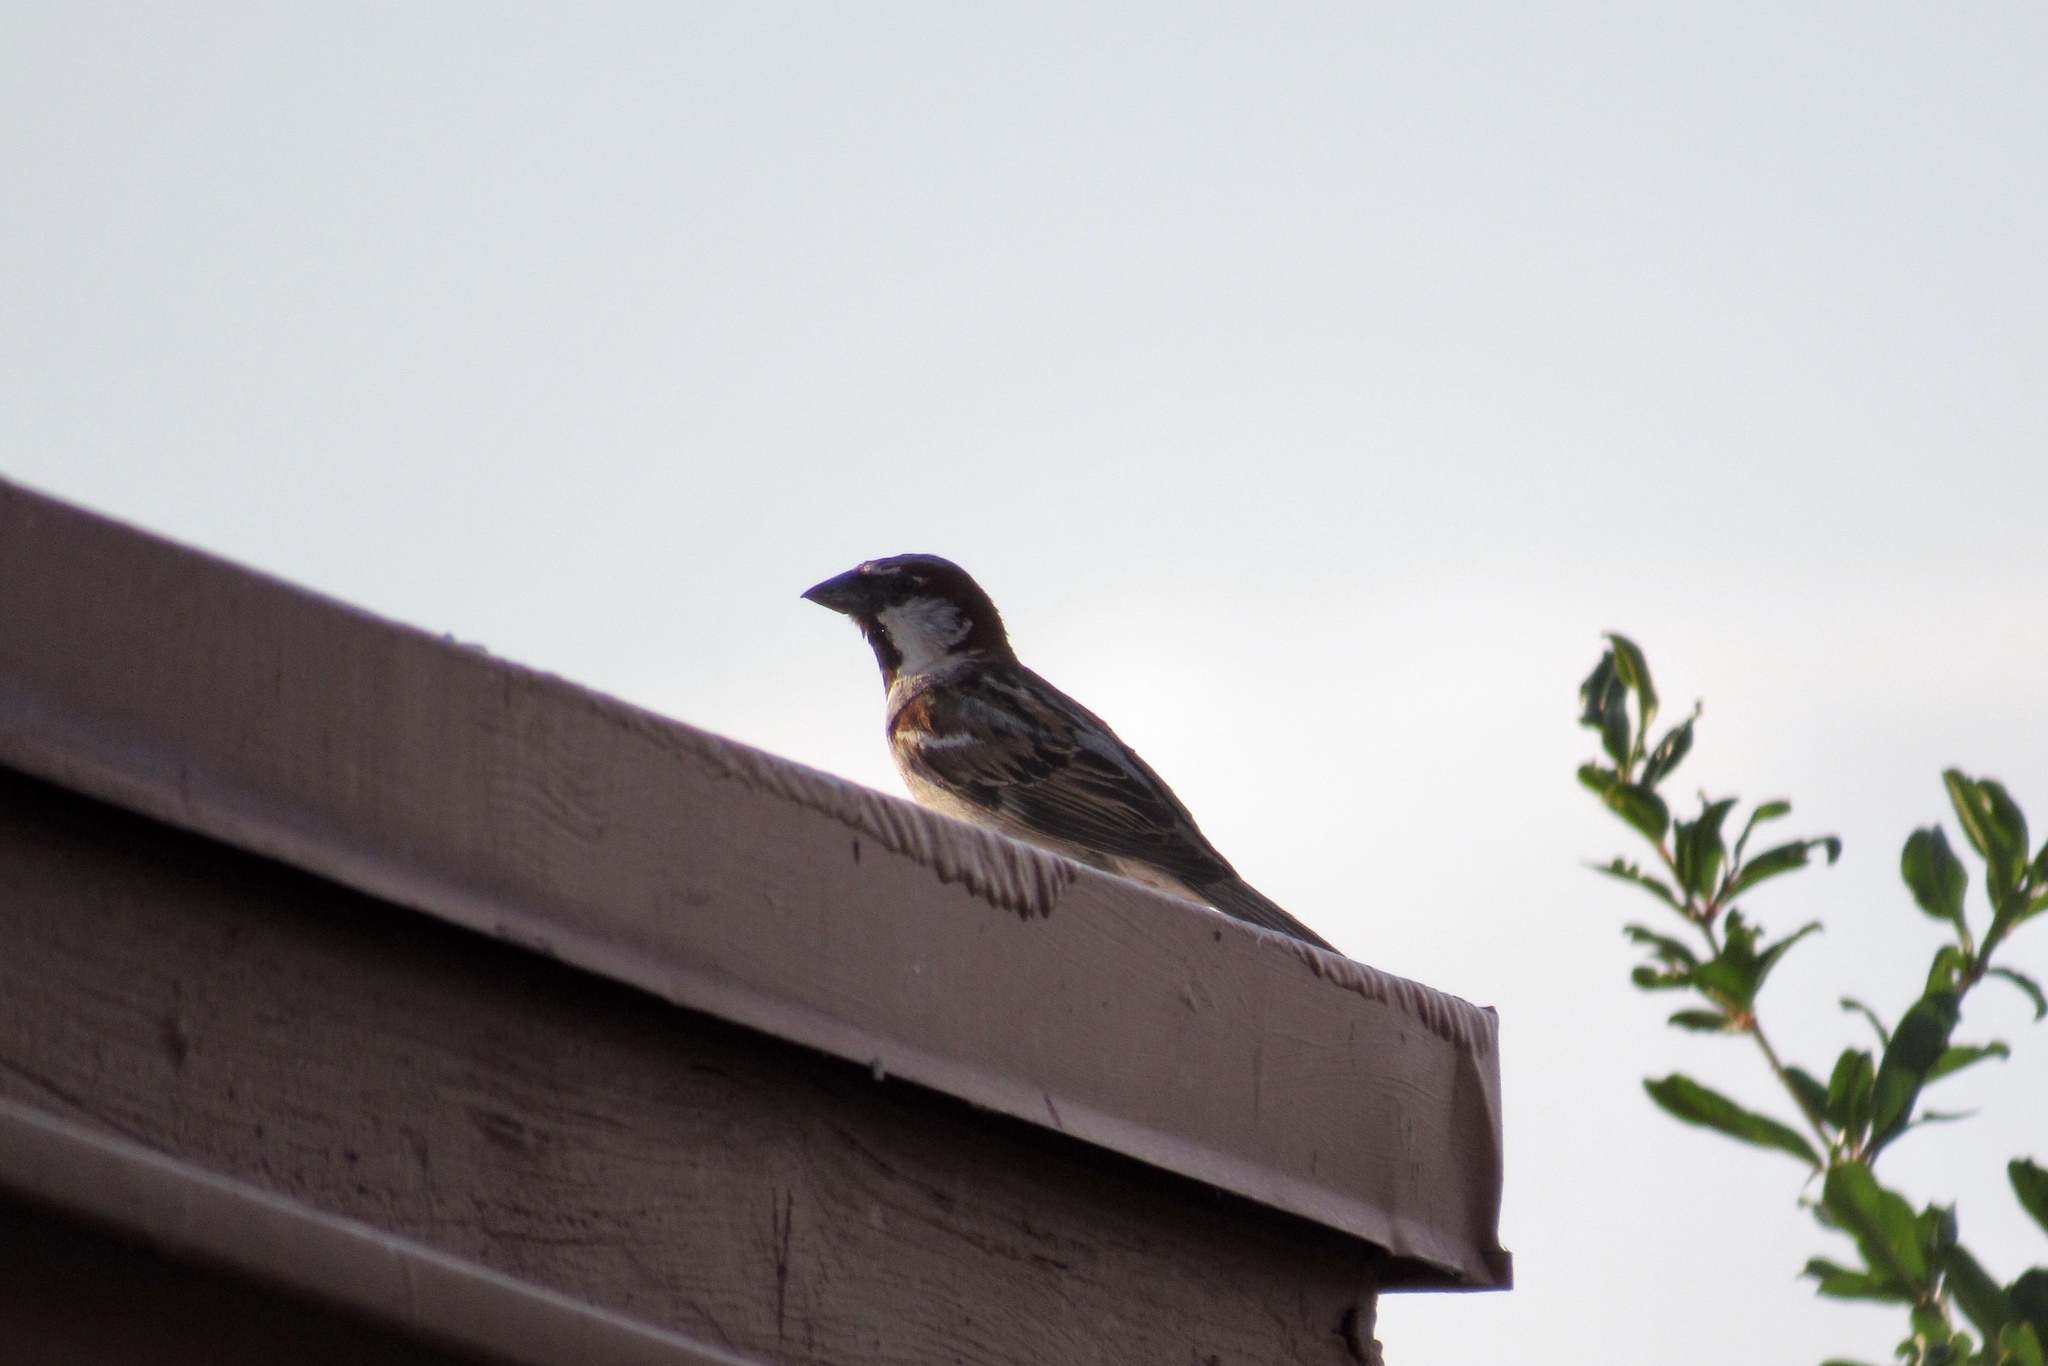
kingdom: Animalia
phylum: Chordata
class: Aves
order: Passeriformes
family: Passeridae
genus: Passer
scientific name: Passer domesticus
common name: House sparrow
